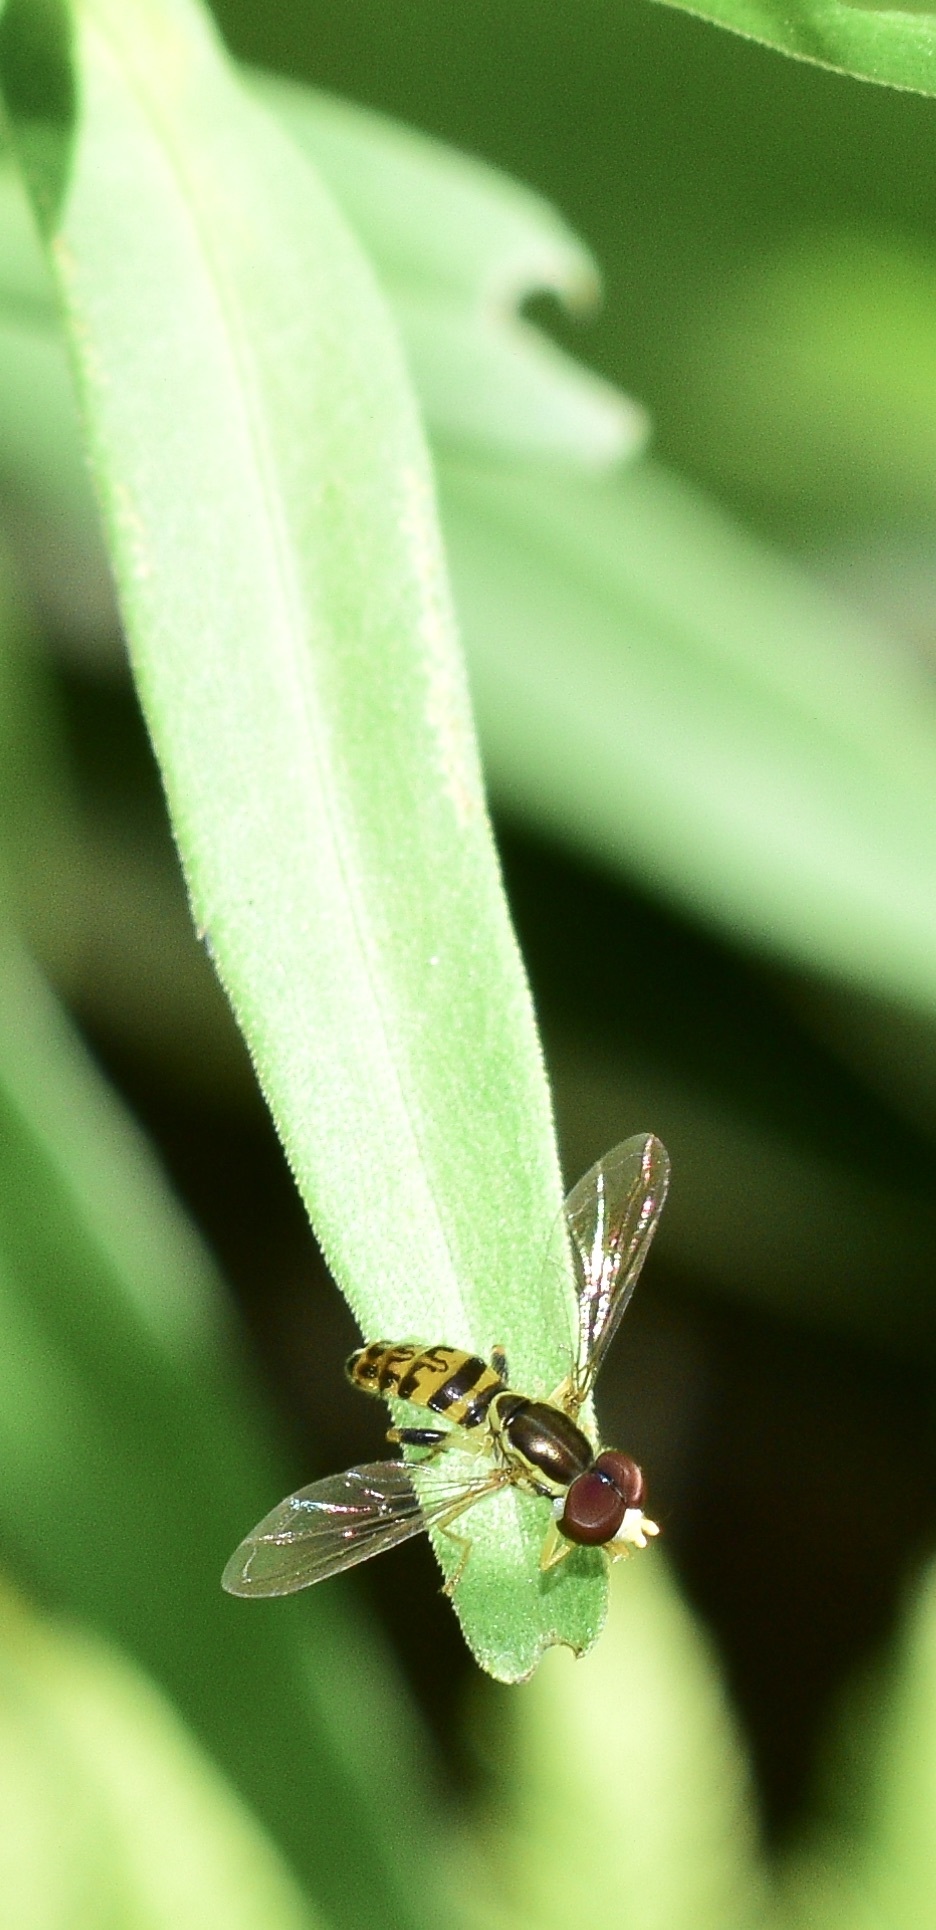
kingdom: Animalia
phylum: Arthropoda
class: Insecta
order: Diptera
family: Syrphidae
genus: Toxomerus
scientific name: Toxomerus geminatus
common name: Eastern calligrapher
